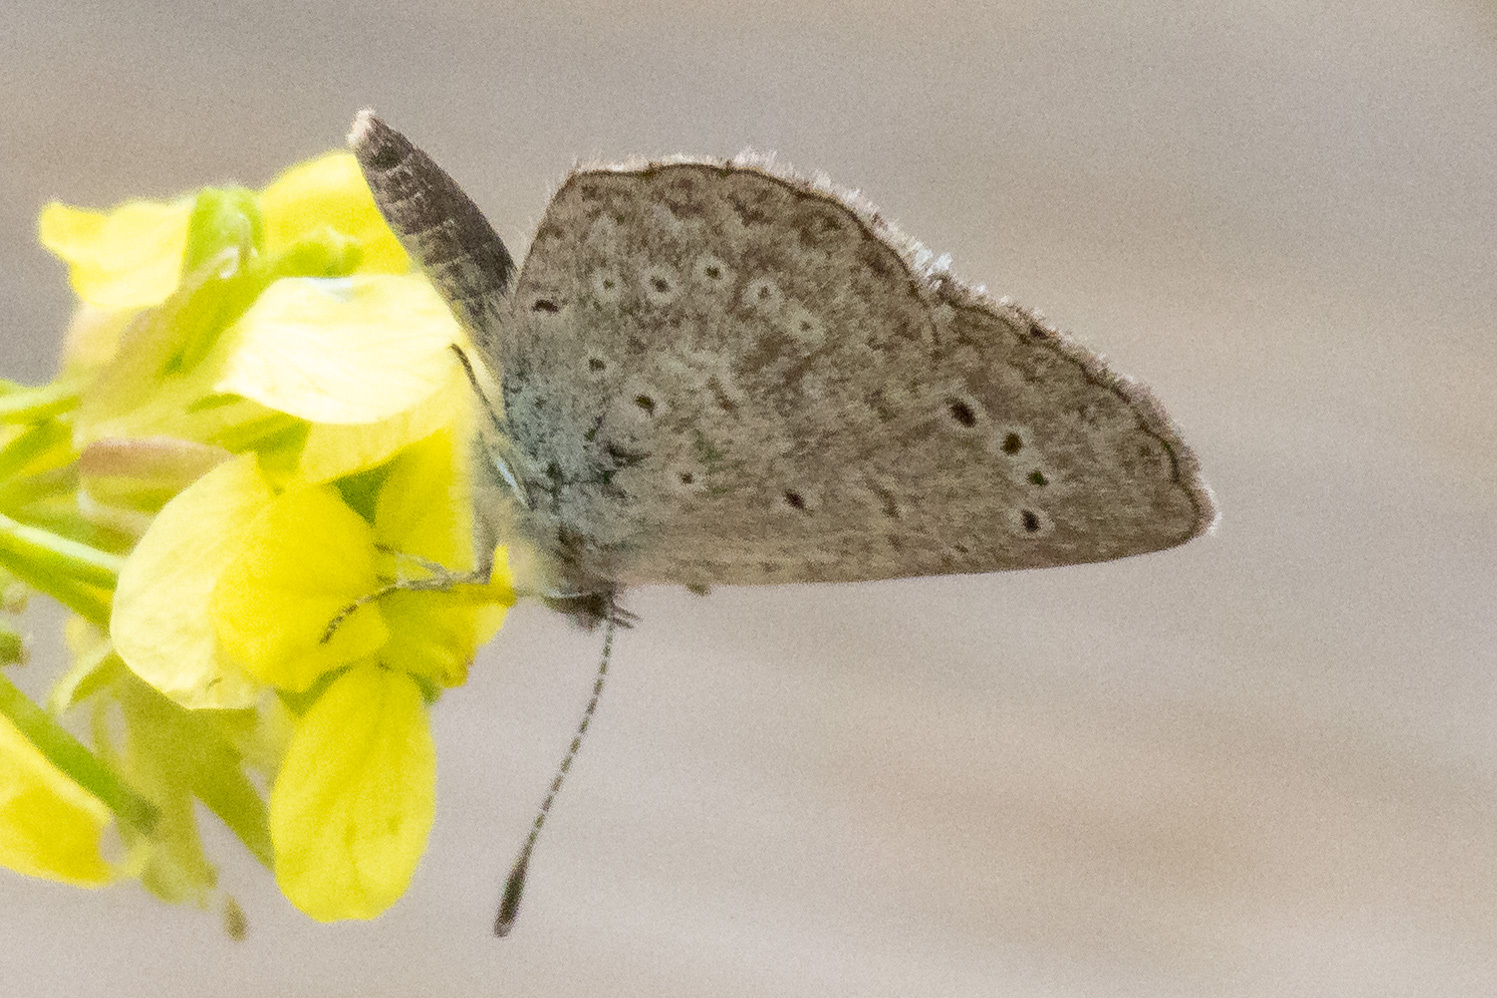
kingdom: Animalia
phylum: Arthropoda
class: Insecta
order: Lepidoptera
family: Lycaenidae
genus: Zizeeria
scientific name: Zizeeria knysna
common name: African grass blue
